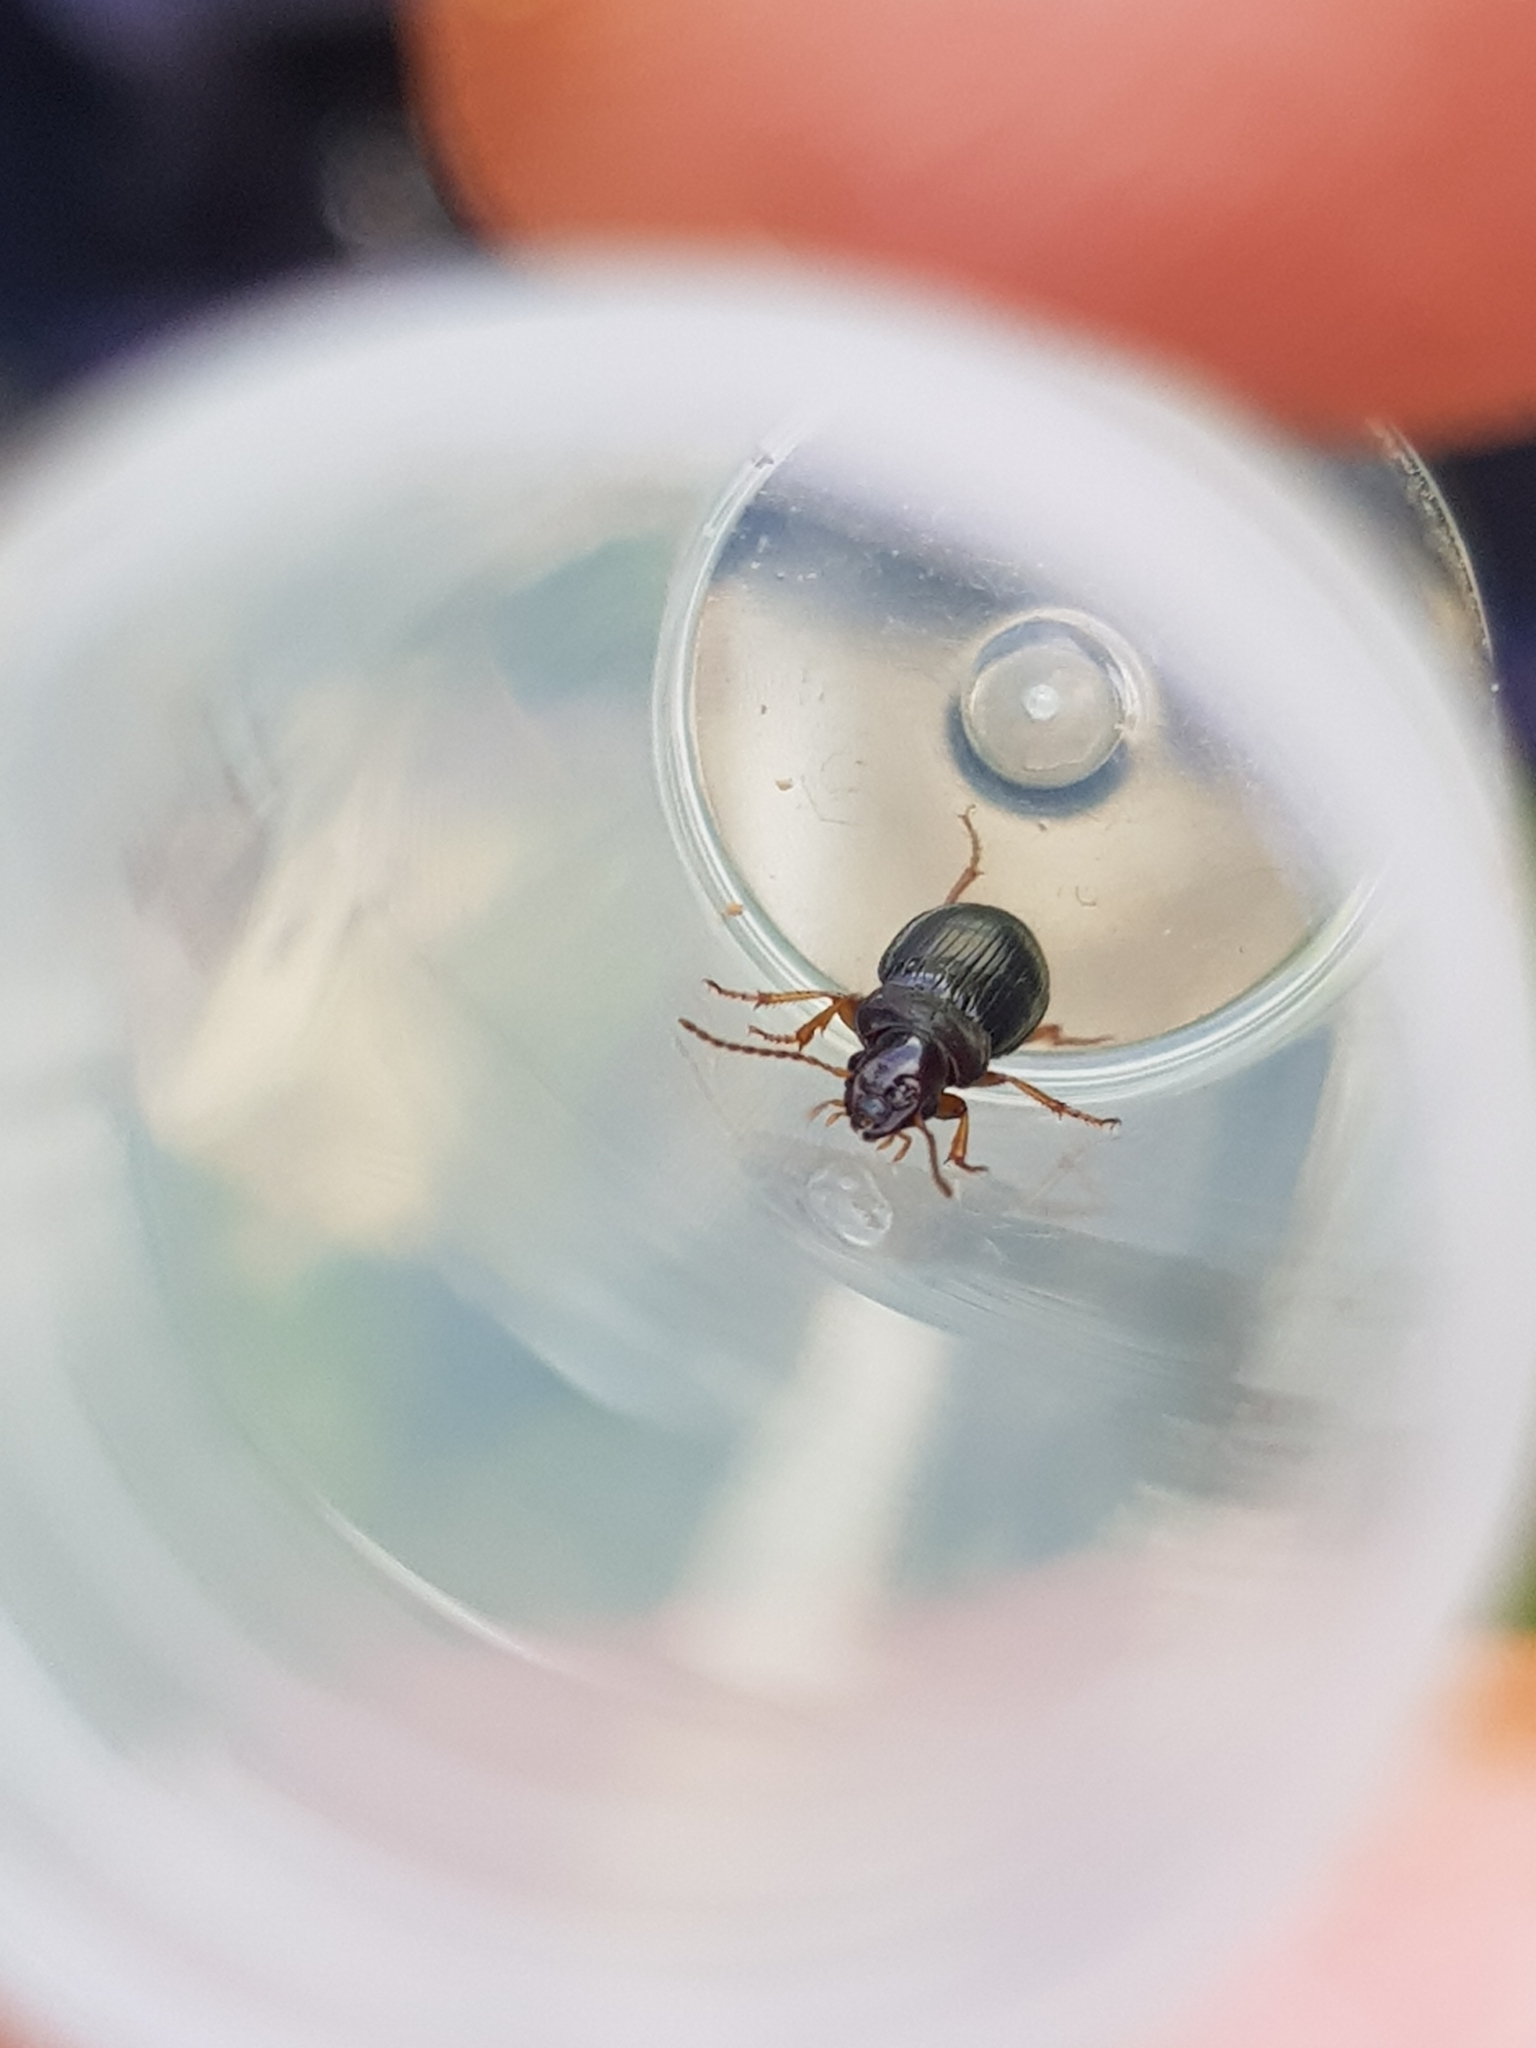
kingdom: Animalia
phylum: Arthropoda
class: Insecta
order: Coleoptera
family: Carabidae
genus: Trichotichnus
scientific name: Trichotichnus laevicollis
